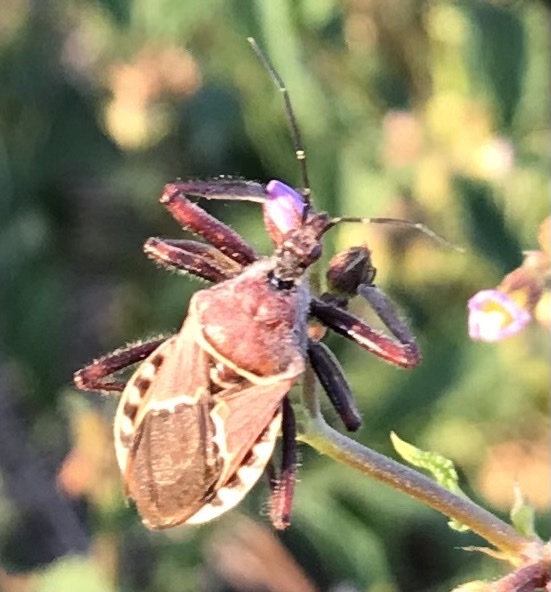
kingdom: Animalia
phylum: Arthropoda
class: Insecta
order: Hemiptera
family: Reduviidae
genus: Apiomerus
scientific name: Apiomerus spissipes
